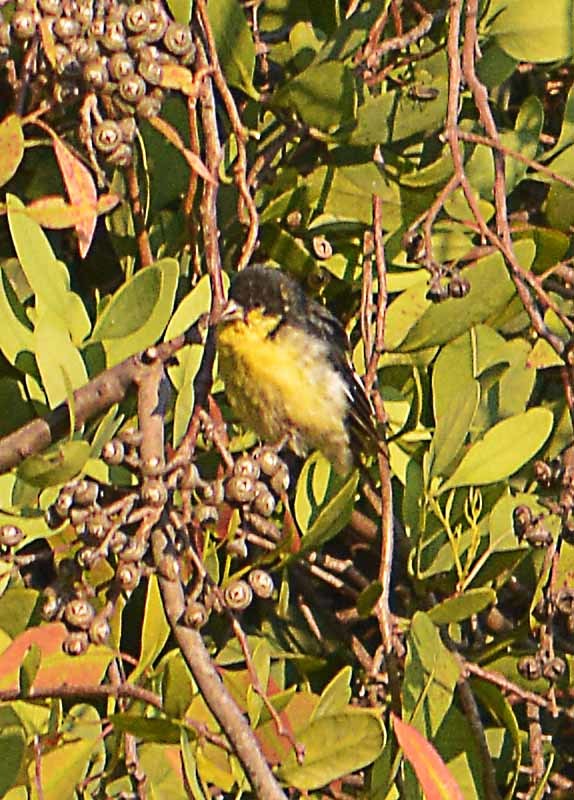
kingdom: Animalia
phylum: Chordata
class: Aves
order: Passeriformes
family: Fringillidae
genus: Spinus
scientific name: Spinus psaltria
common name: Lesser goldfinch
